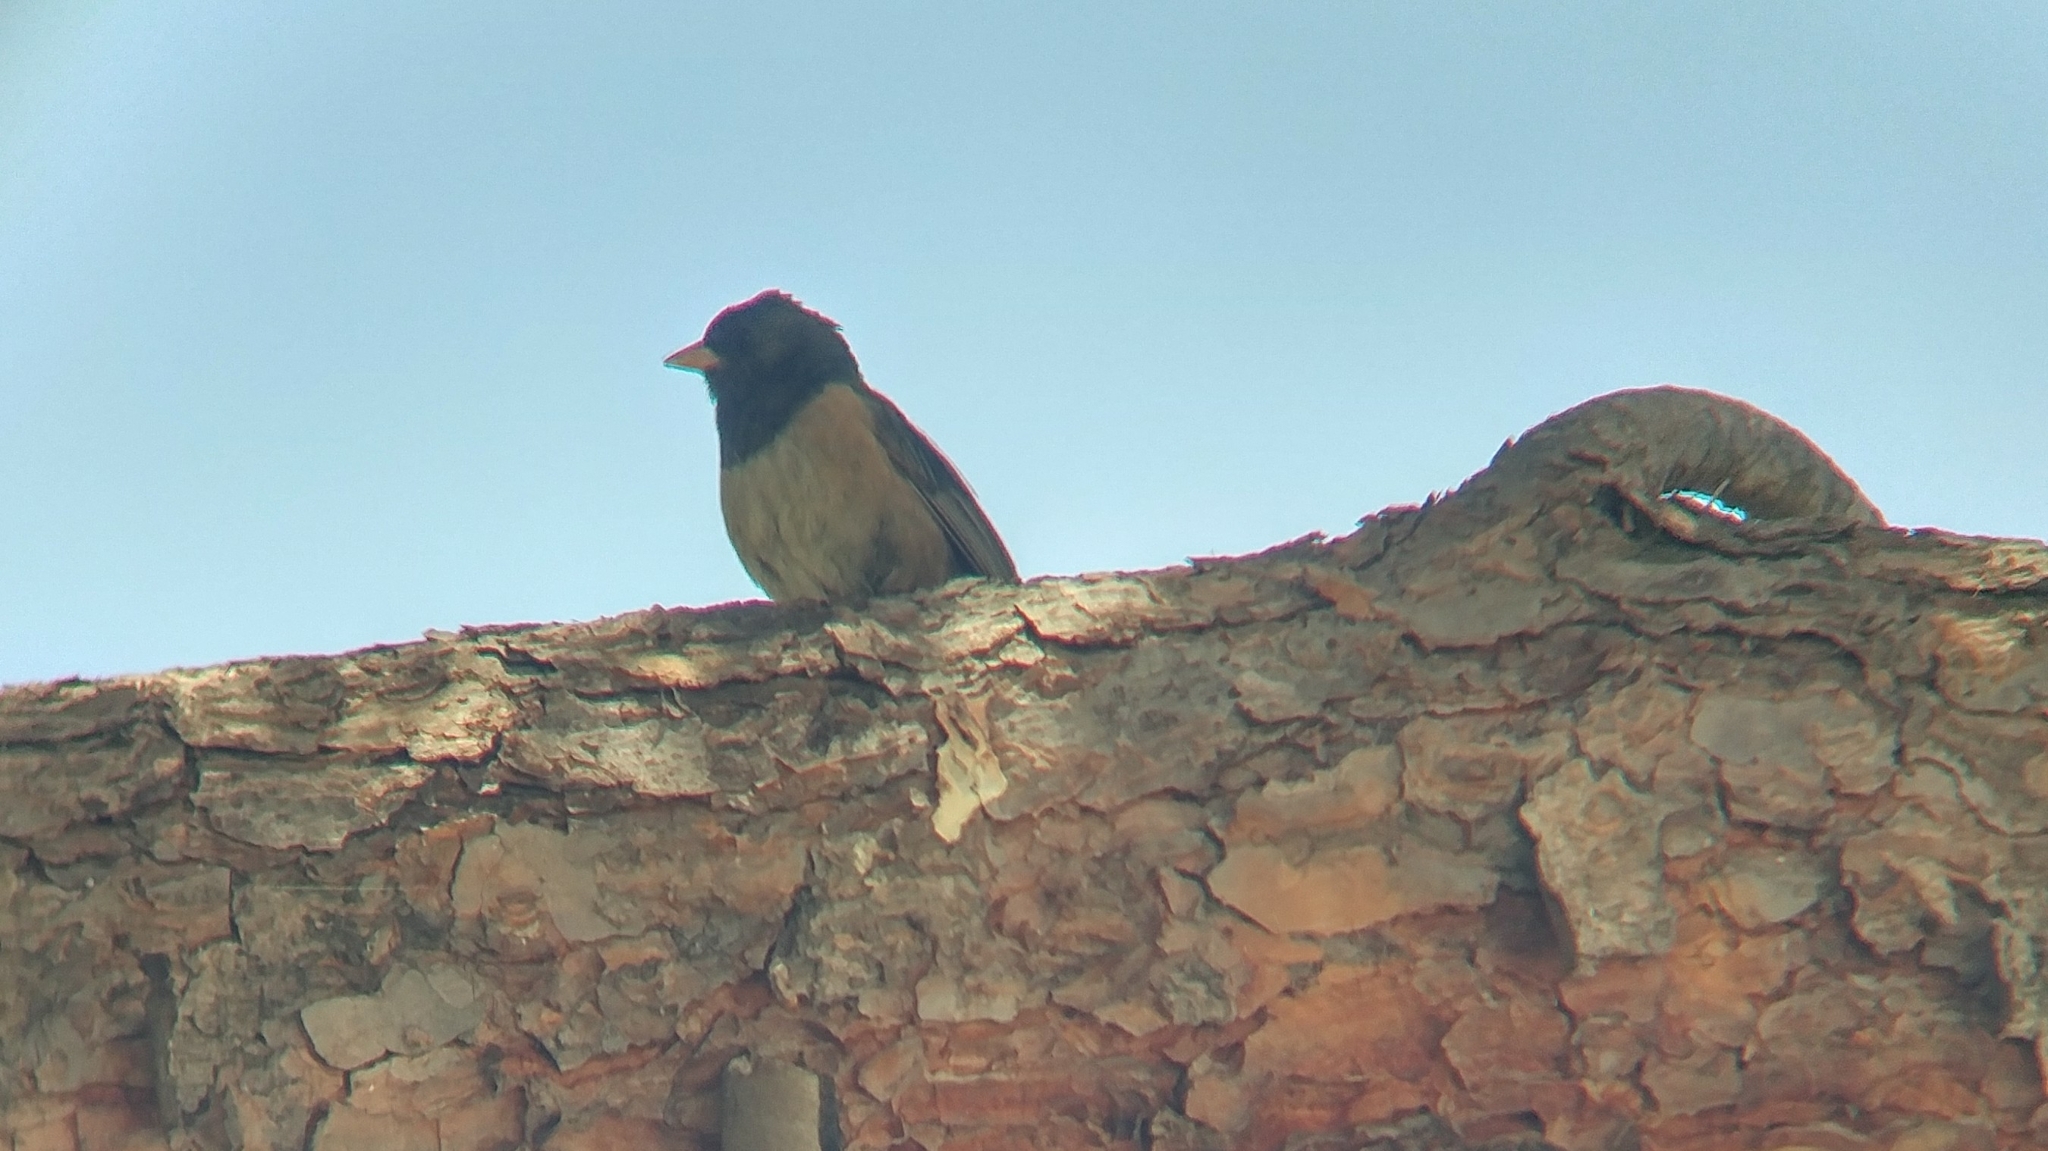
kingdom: Animalia
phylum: Chordata
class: Aves
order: Passeriformes
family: Passerellidae
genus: Junco
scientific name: Junco hyemalis
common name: Dark-eyed junco
